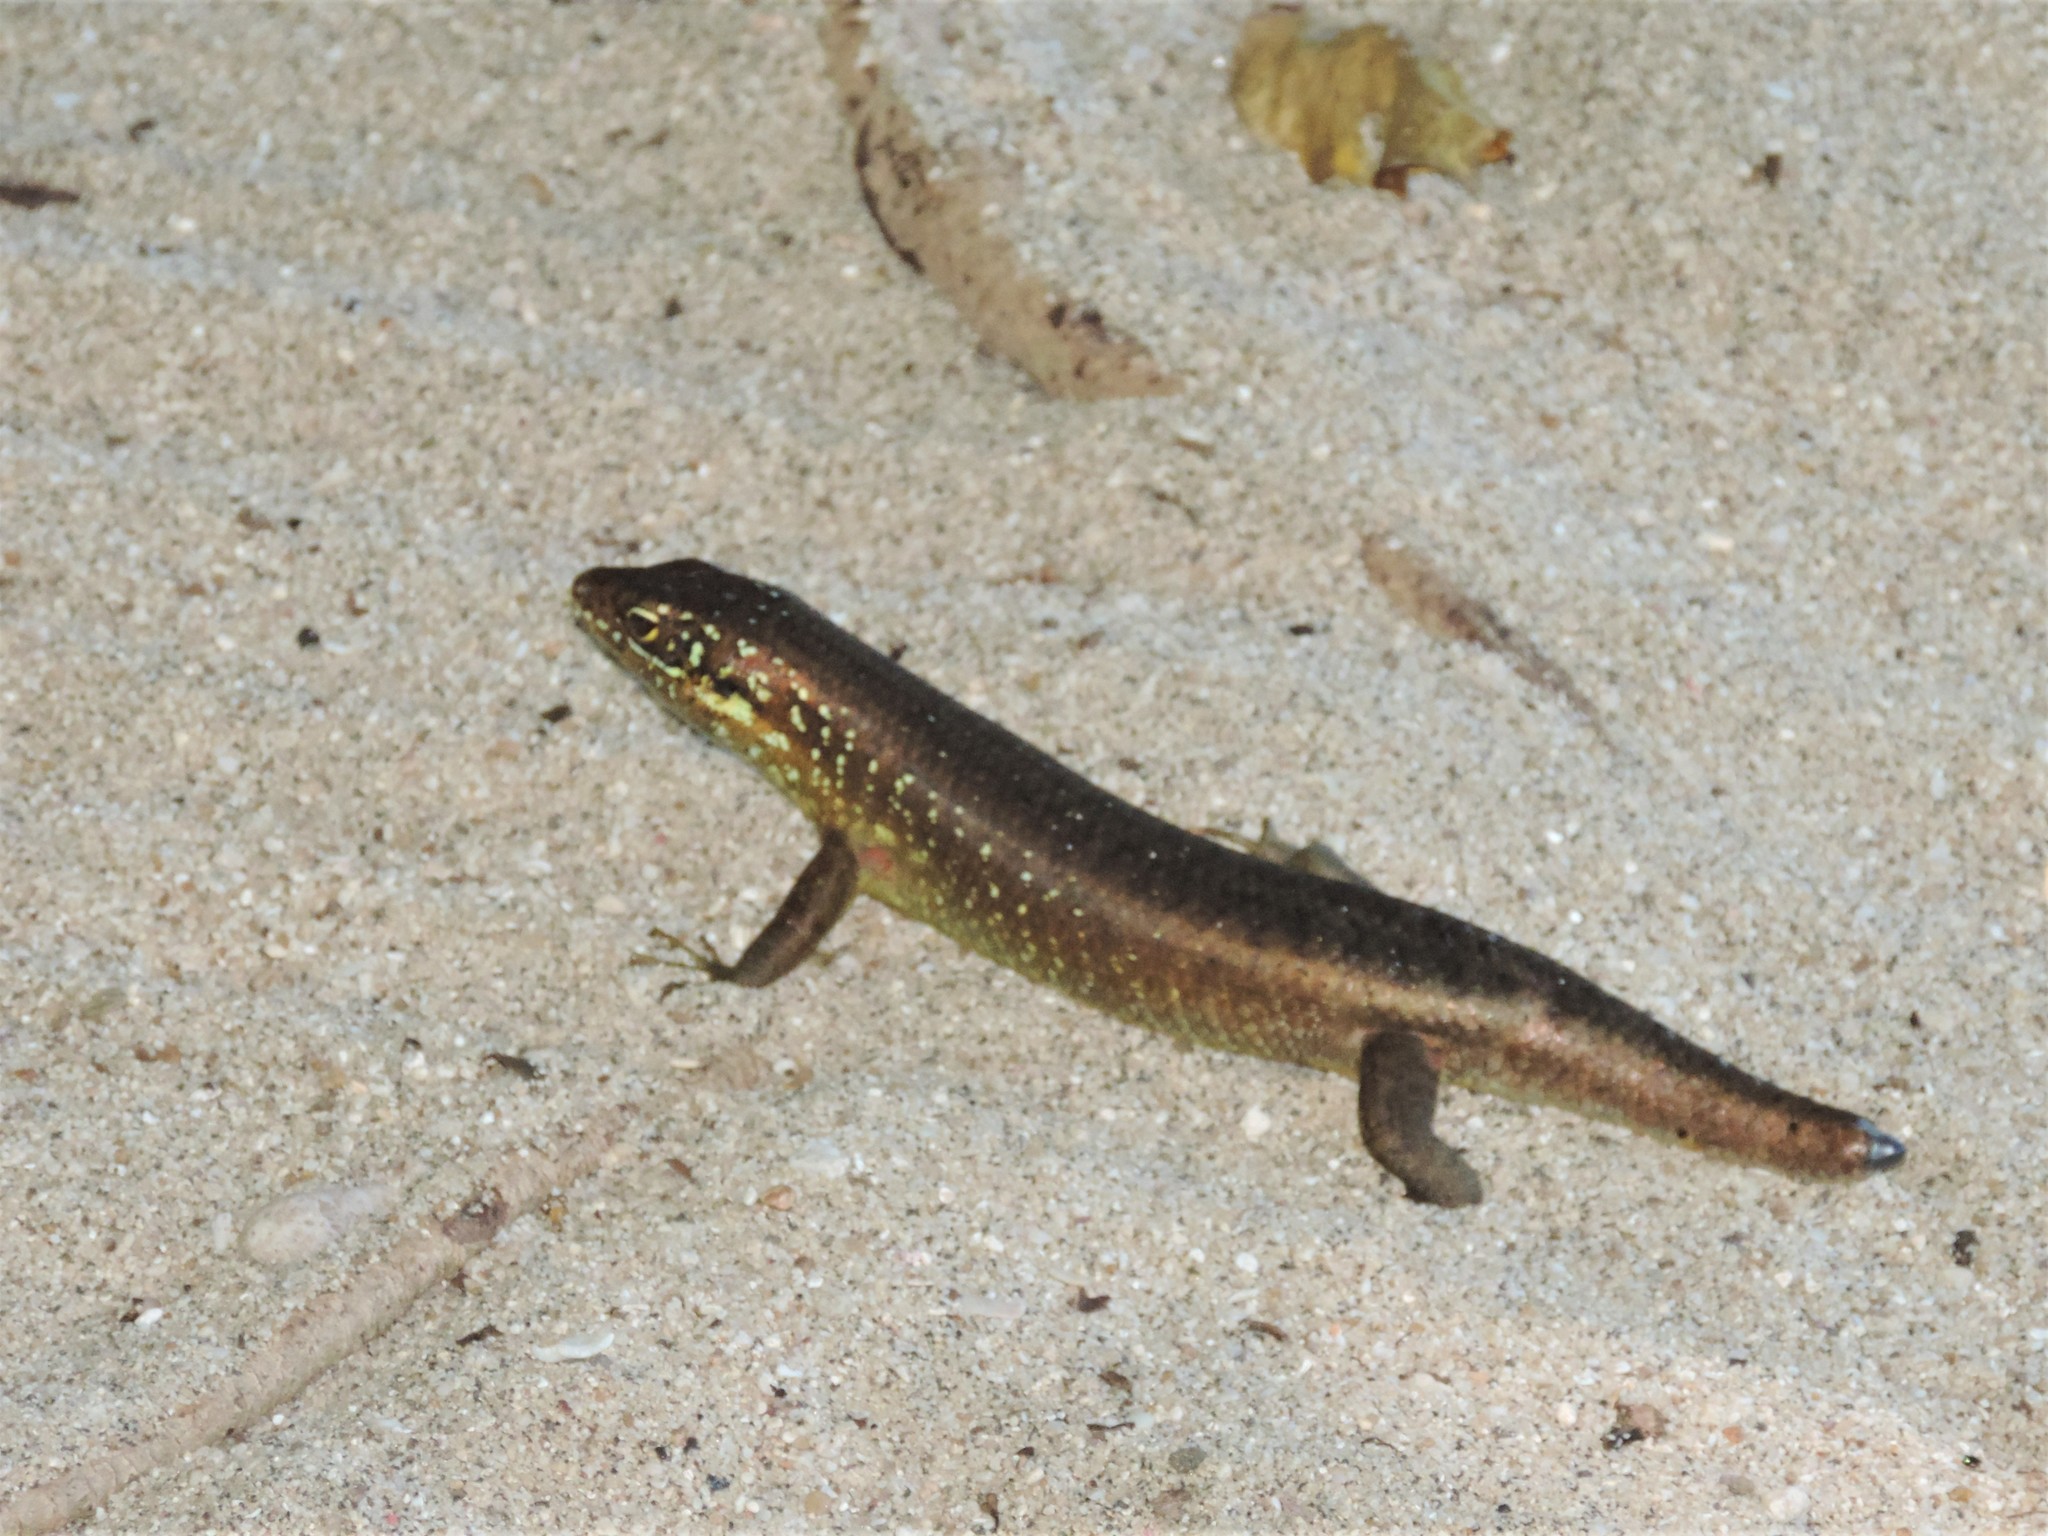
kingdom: Animalia
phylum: Chordata
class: Squamata
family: Scincidae
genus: Trachylepis
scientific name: Trachylepis comorensis
